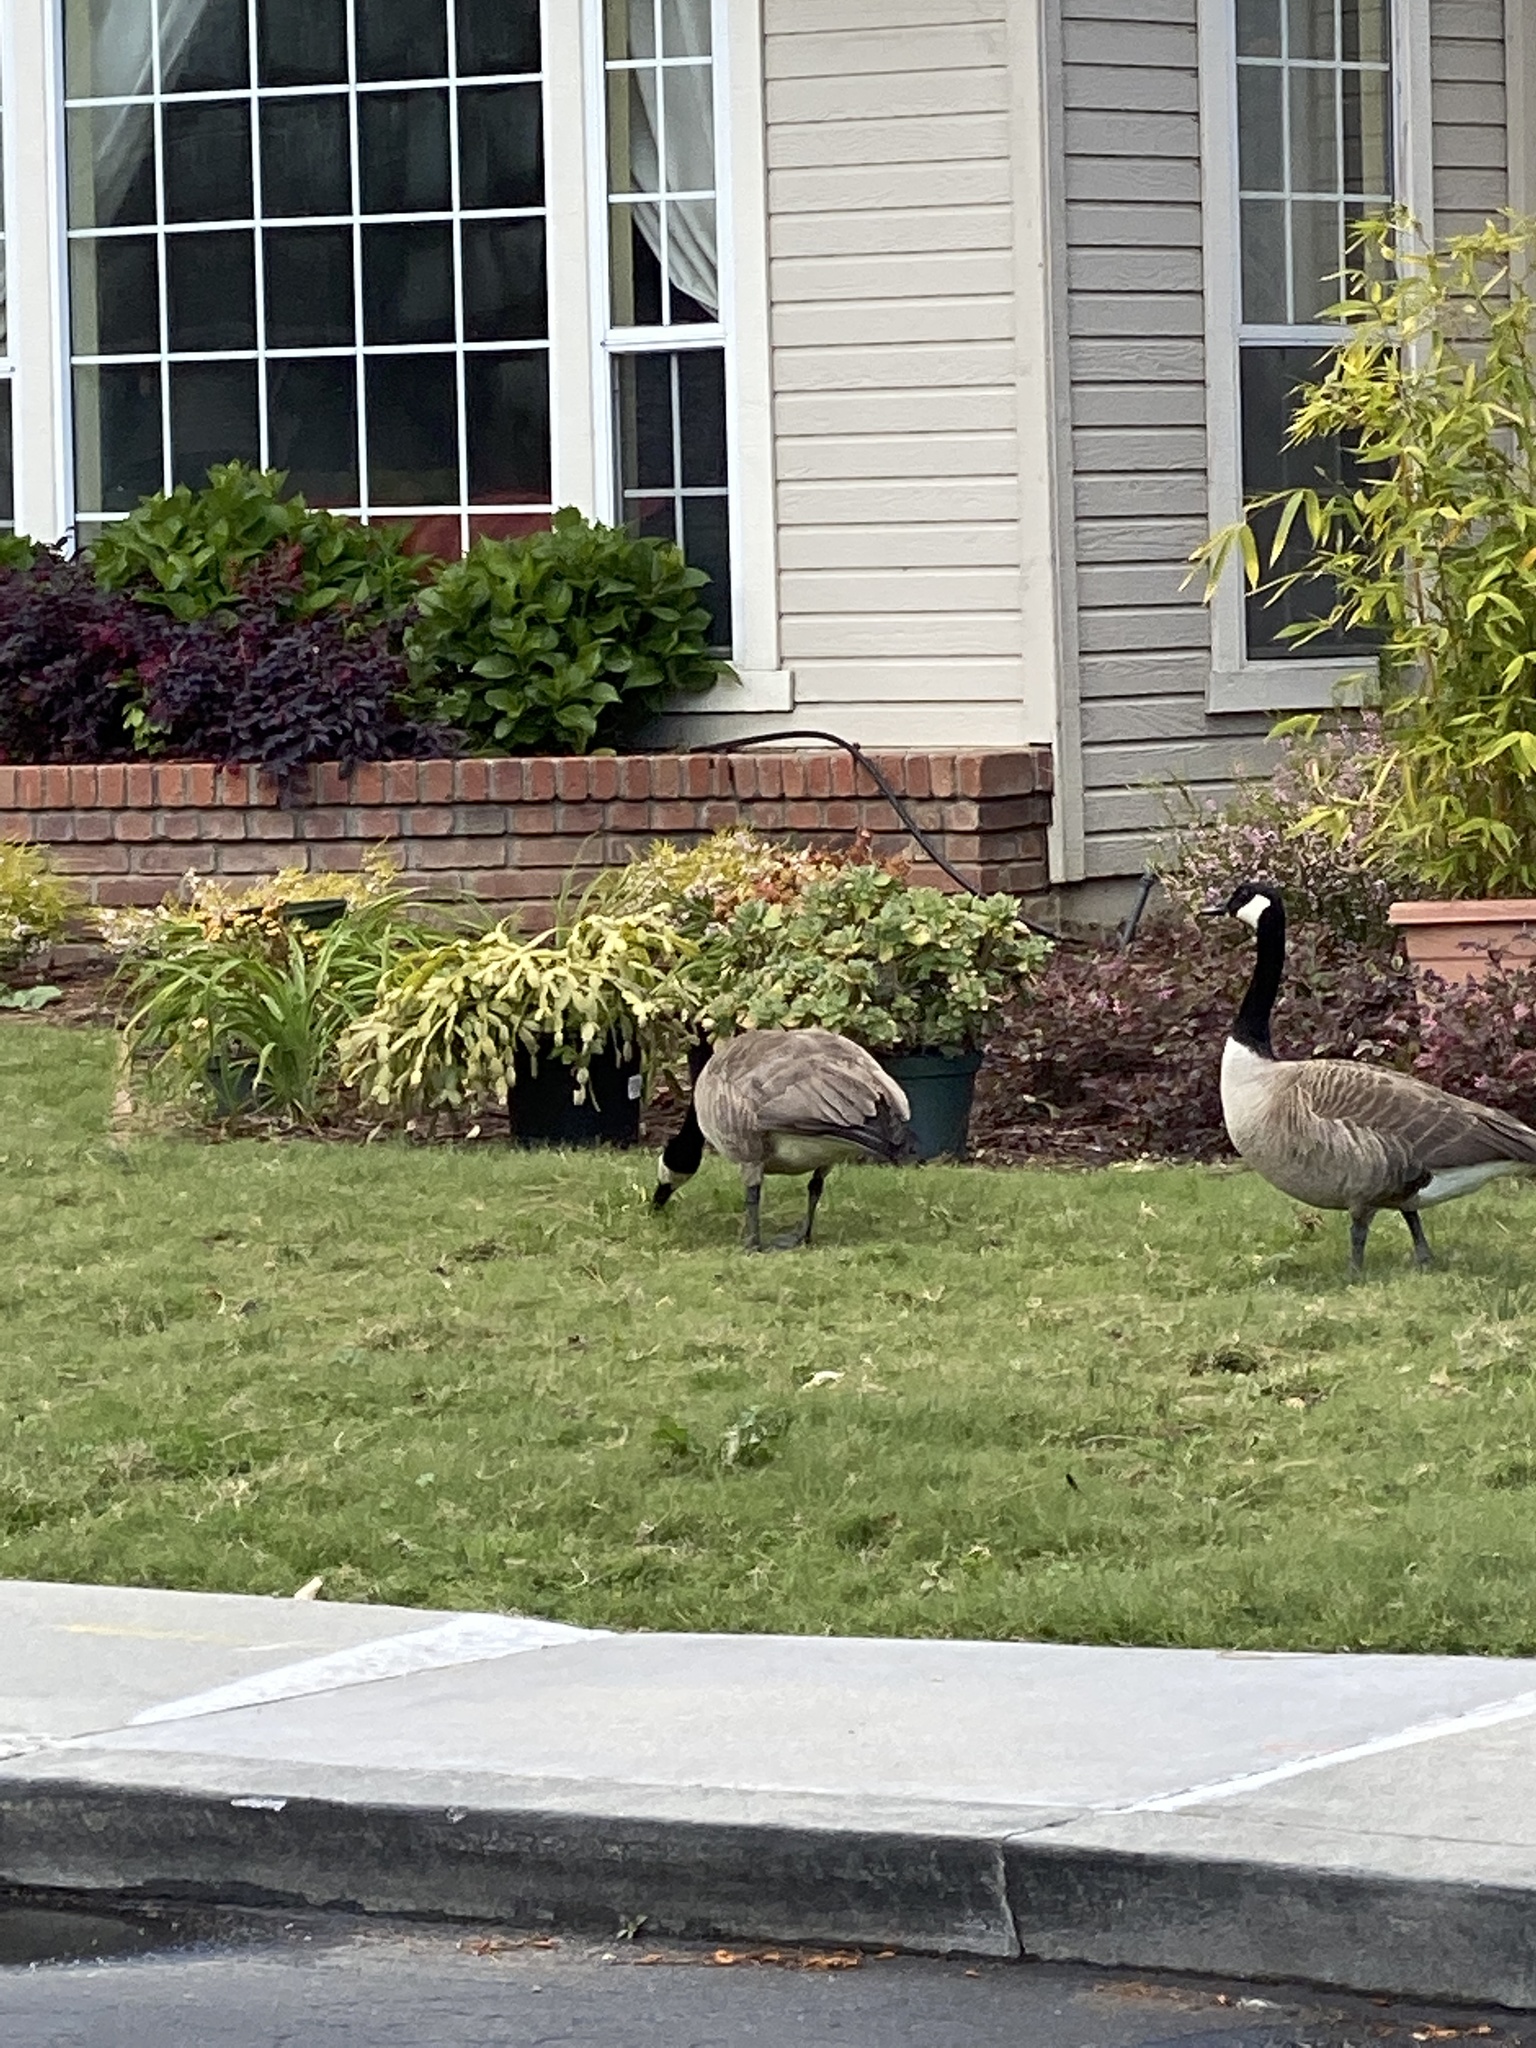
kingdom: Animalia
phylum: Chordata
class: Aves
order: Anseriformes
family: Anatidae
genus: Branta
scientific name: Branta canadensis
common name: Canada goose
